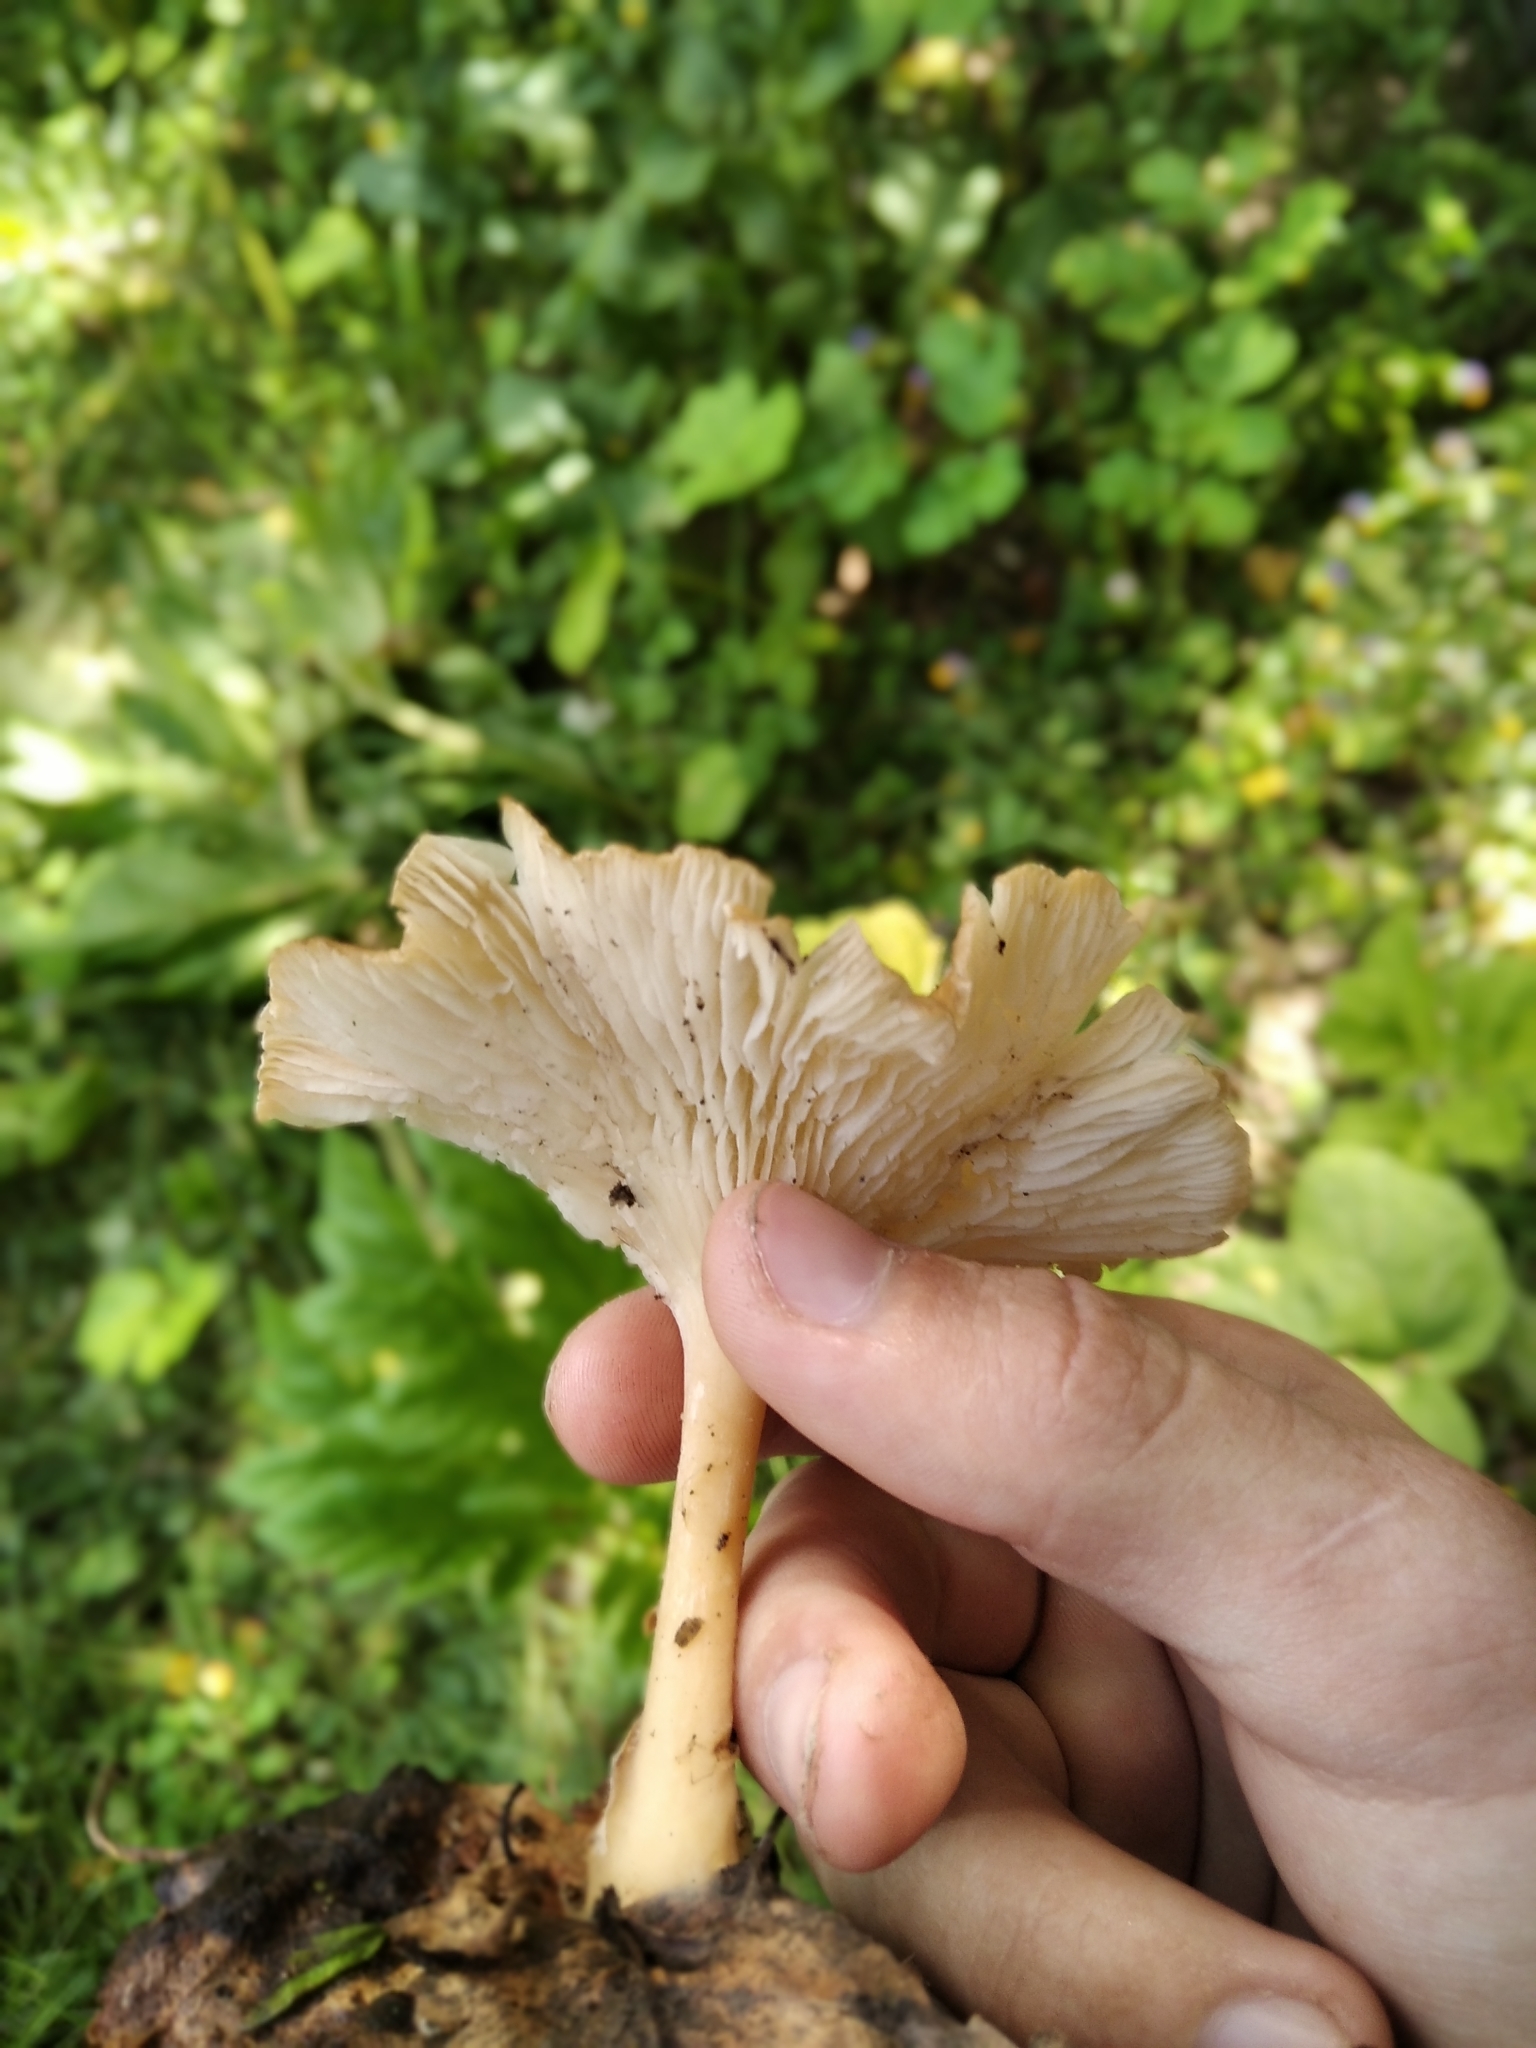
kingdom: Fungi
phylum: Basidiomycota
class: Agaricomycetes
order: Agaricales
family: Tricholomataceae
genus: Infundibulicybe
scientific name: Infundibulicybe gibba
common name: Common funnel
